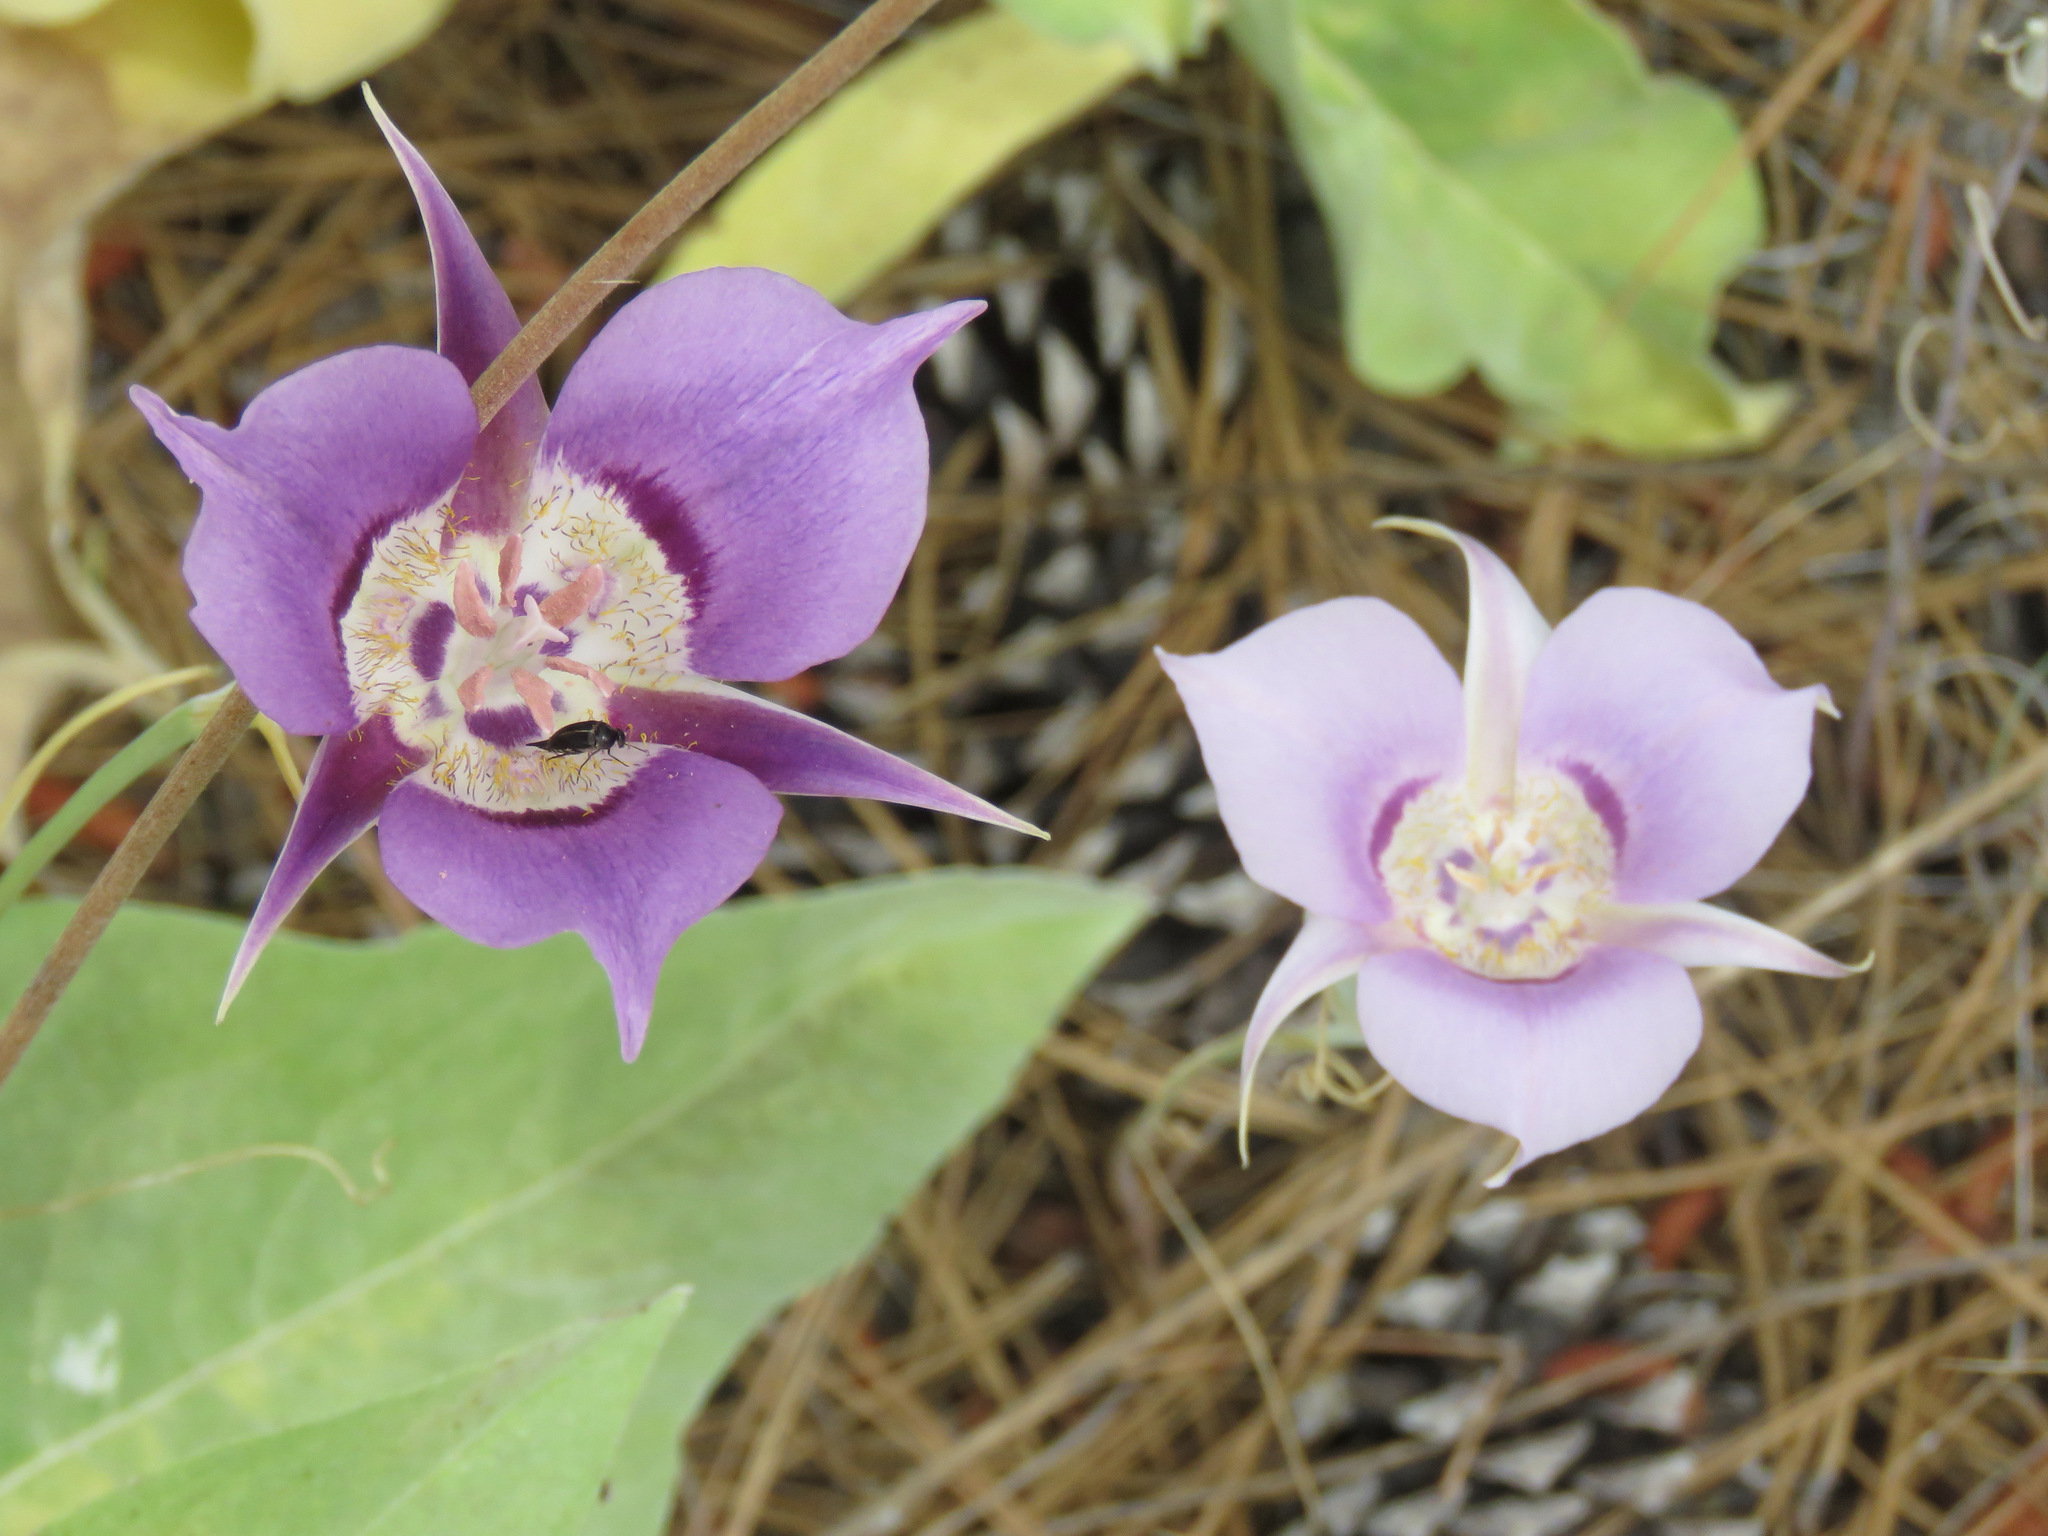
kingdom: Plantae
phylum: Tracheophyta
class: Liliopsida
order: Liliales
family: Liliaceae
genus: Calochortus
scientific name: Calochortus macrocarpus
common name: Green-band mariposa lily
